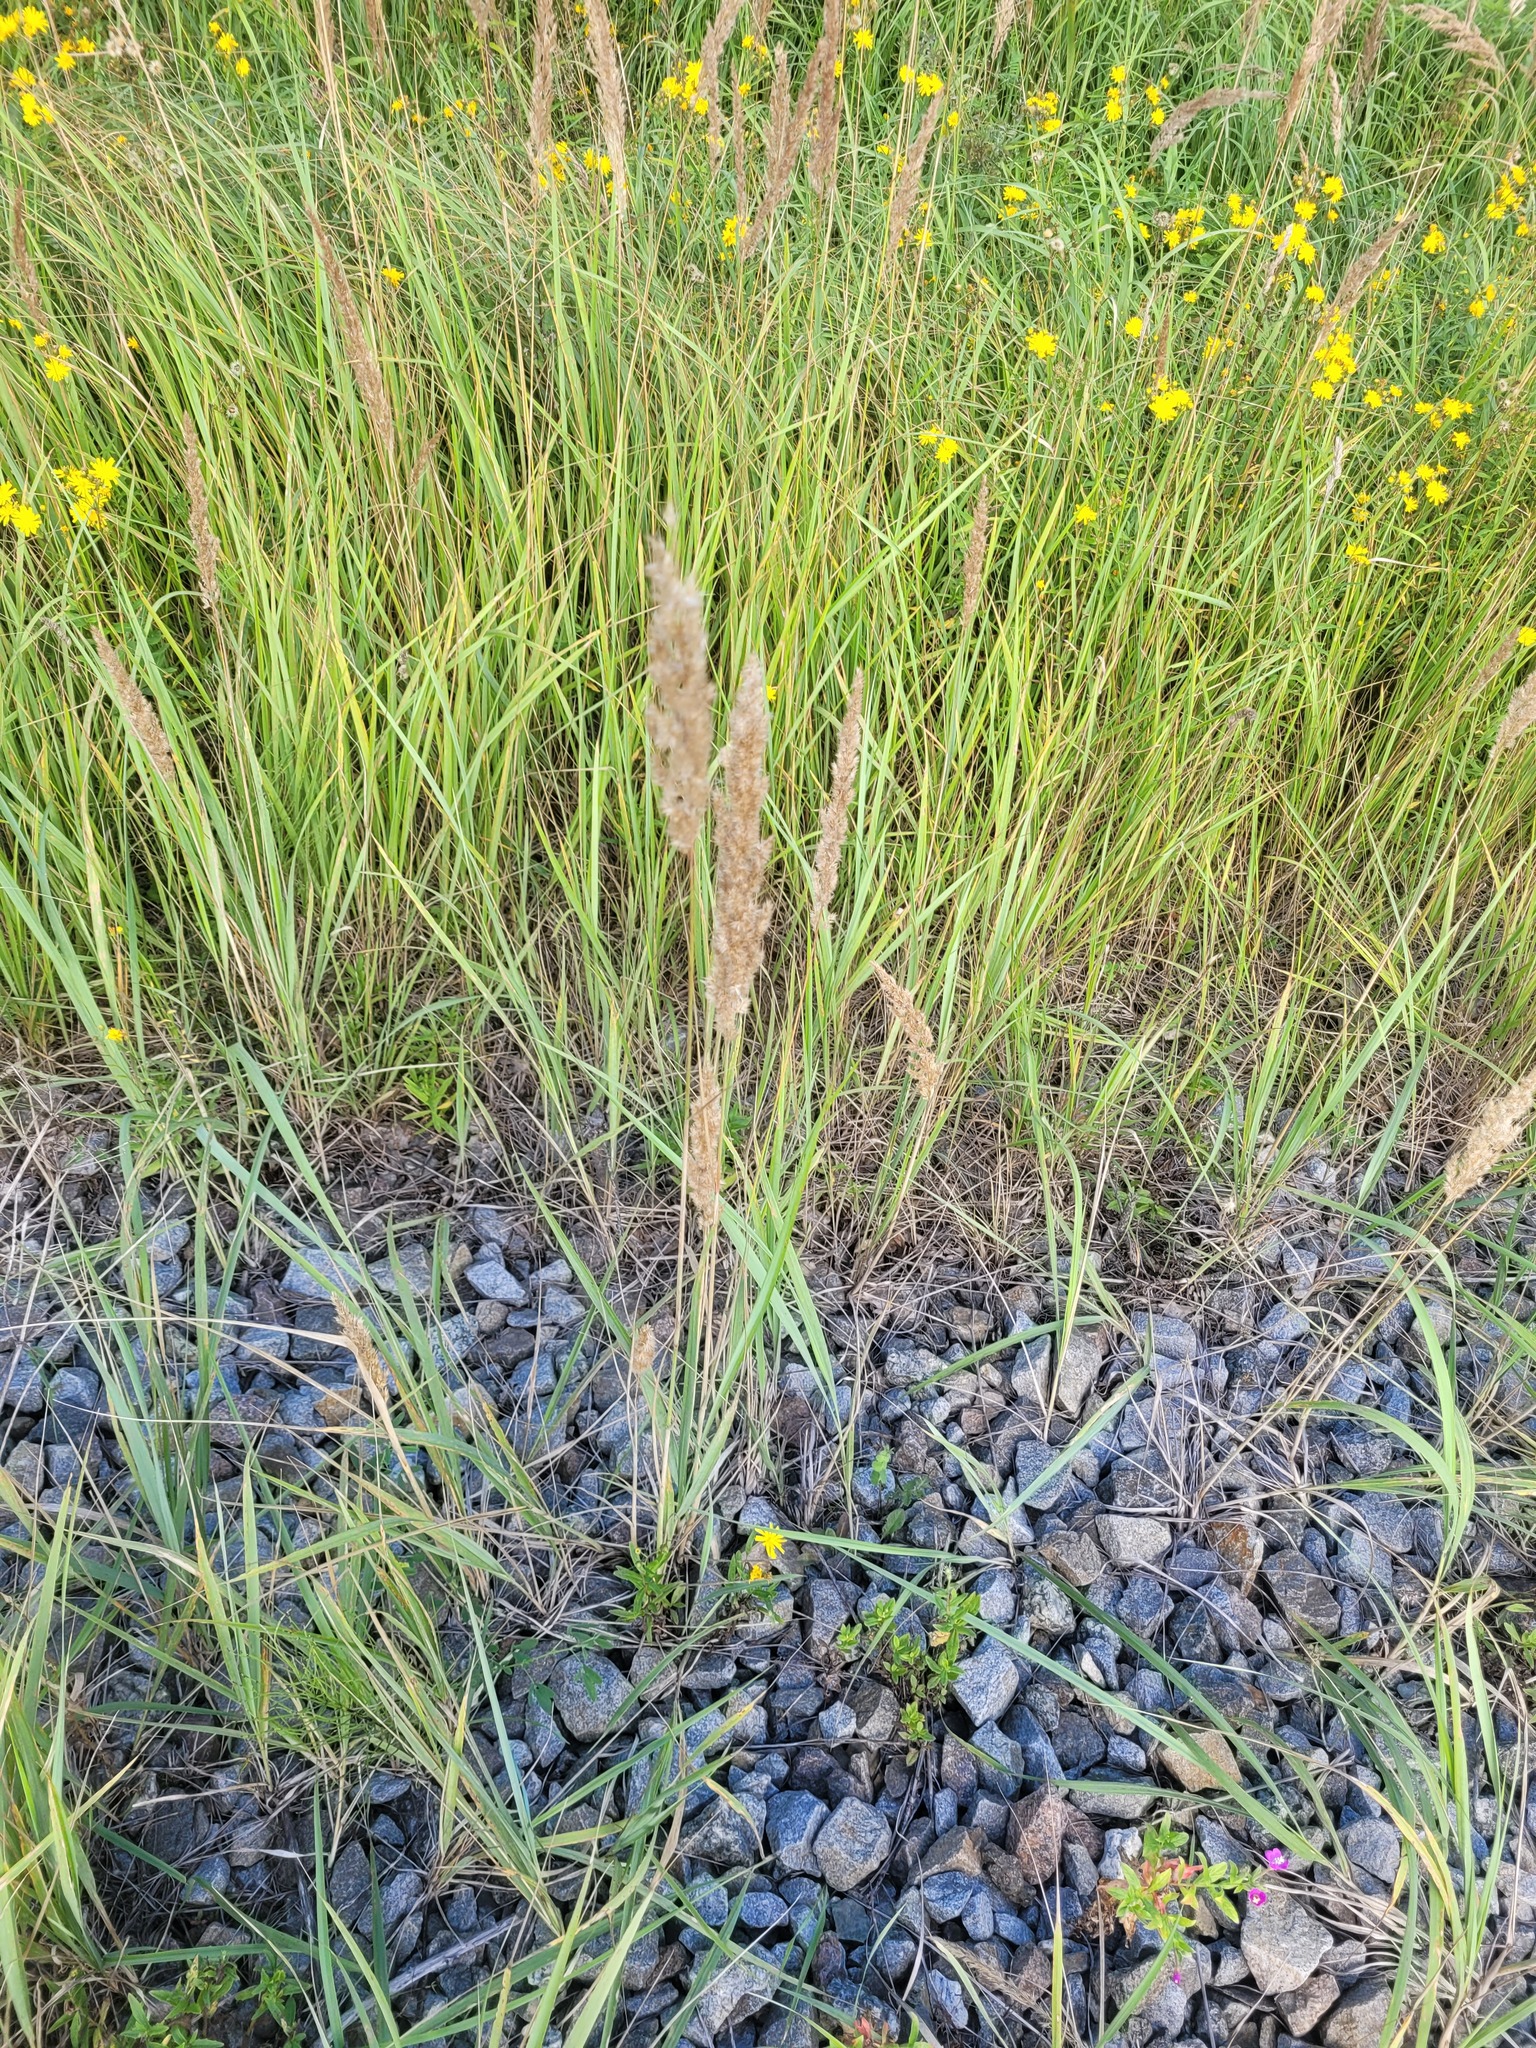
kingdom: Plantae
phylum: Tracheophyta
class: Liliopsida
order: Poales
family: Poaceae
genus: Calamagrostis
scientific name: Calamagrostis epigejos
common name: Wood small-reed
